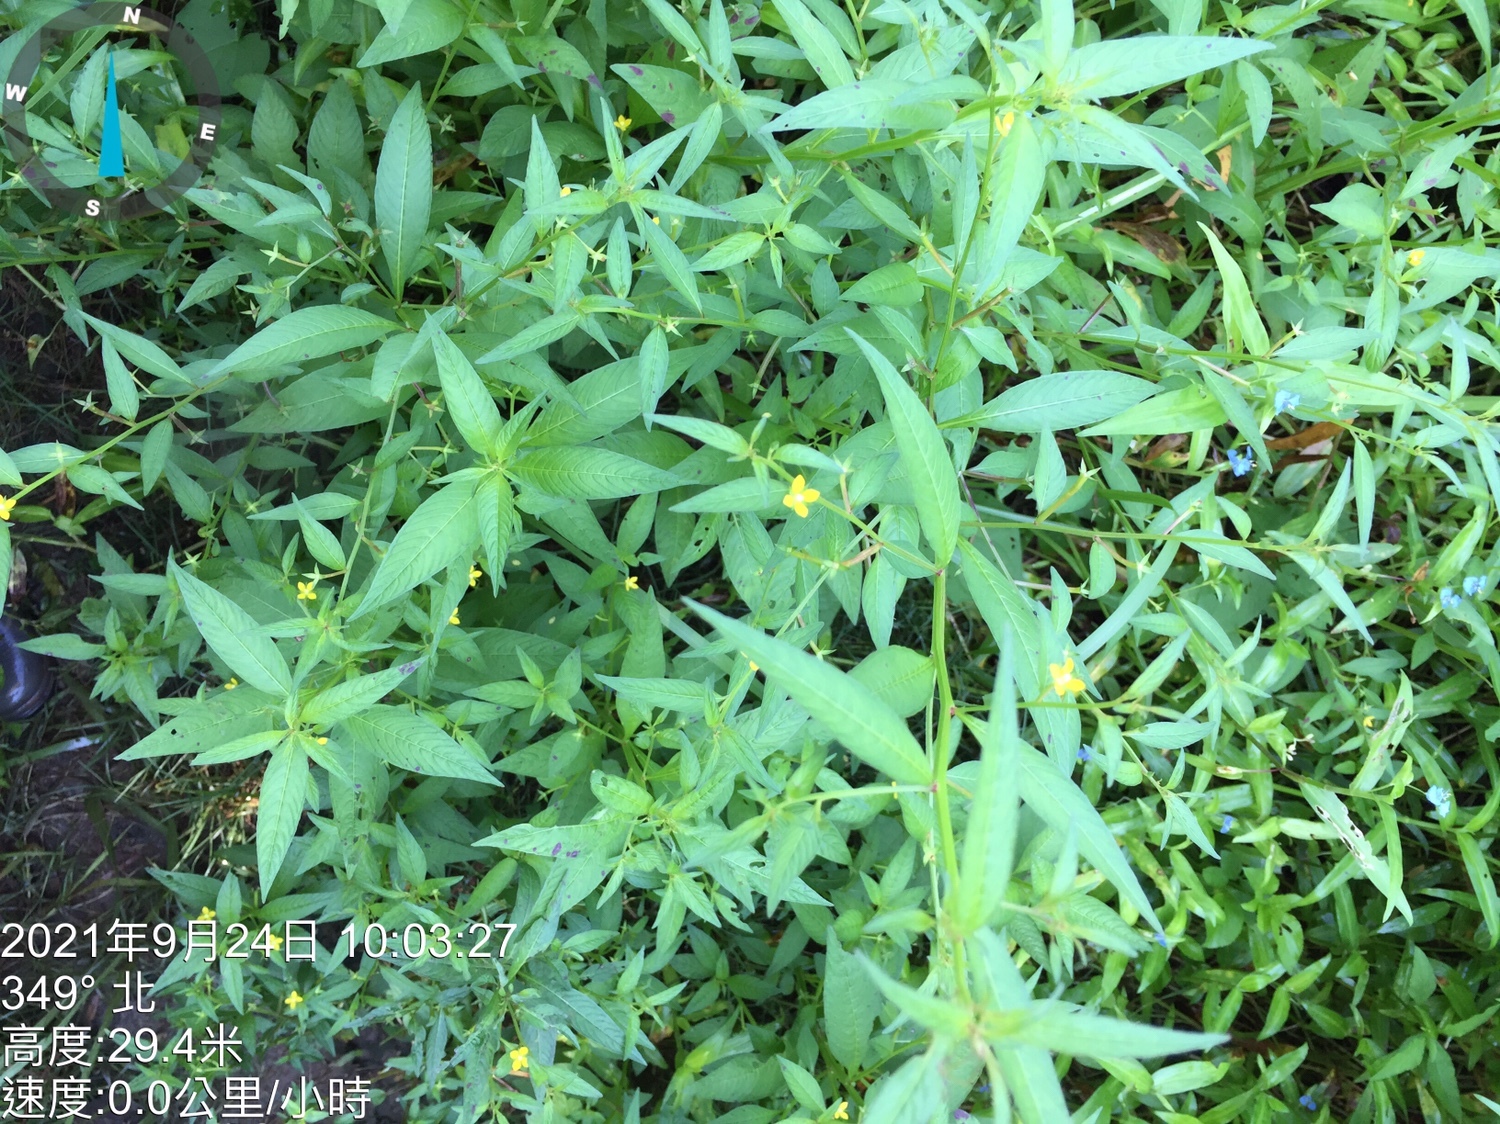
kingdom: Plantae
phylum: Tracheophyta
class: Magnoliopsida
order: Myrtales
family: Onagraceae
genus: Ludwigia
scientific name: Ludwigia hyssopifolia
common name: Linear leaf water primrose
